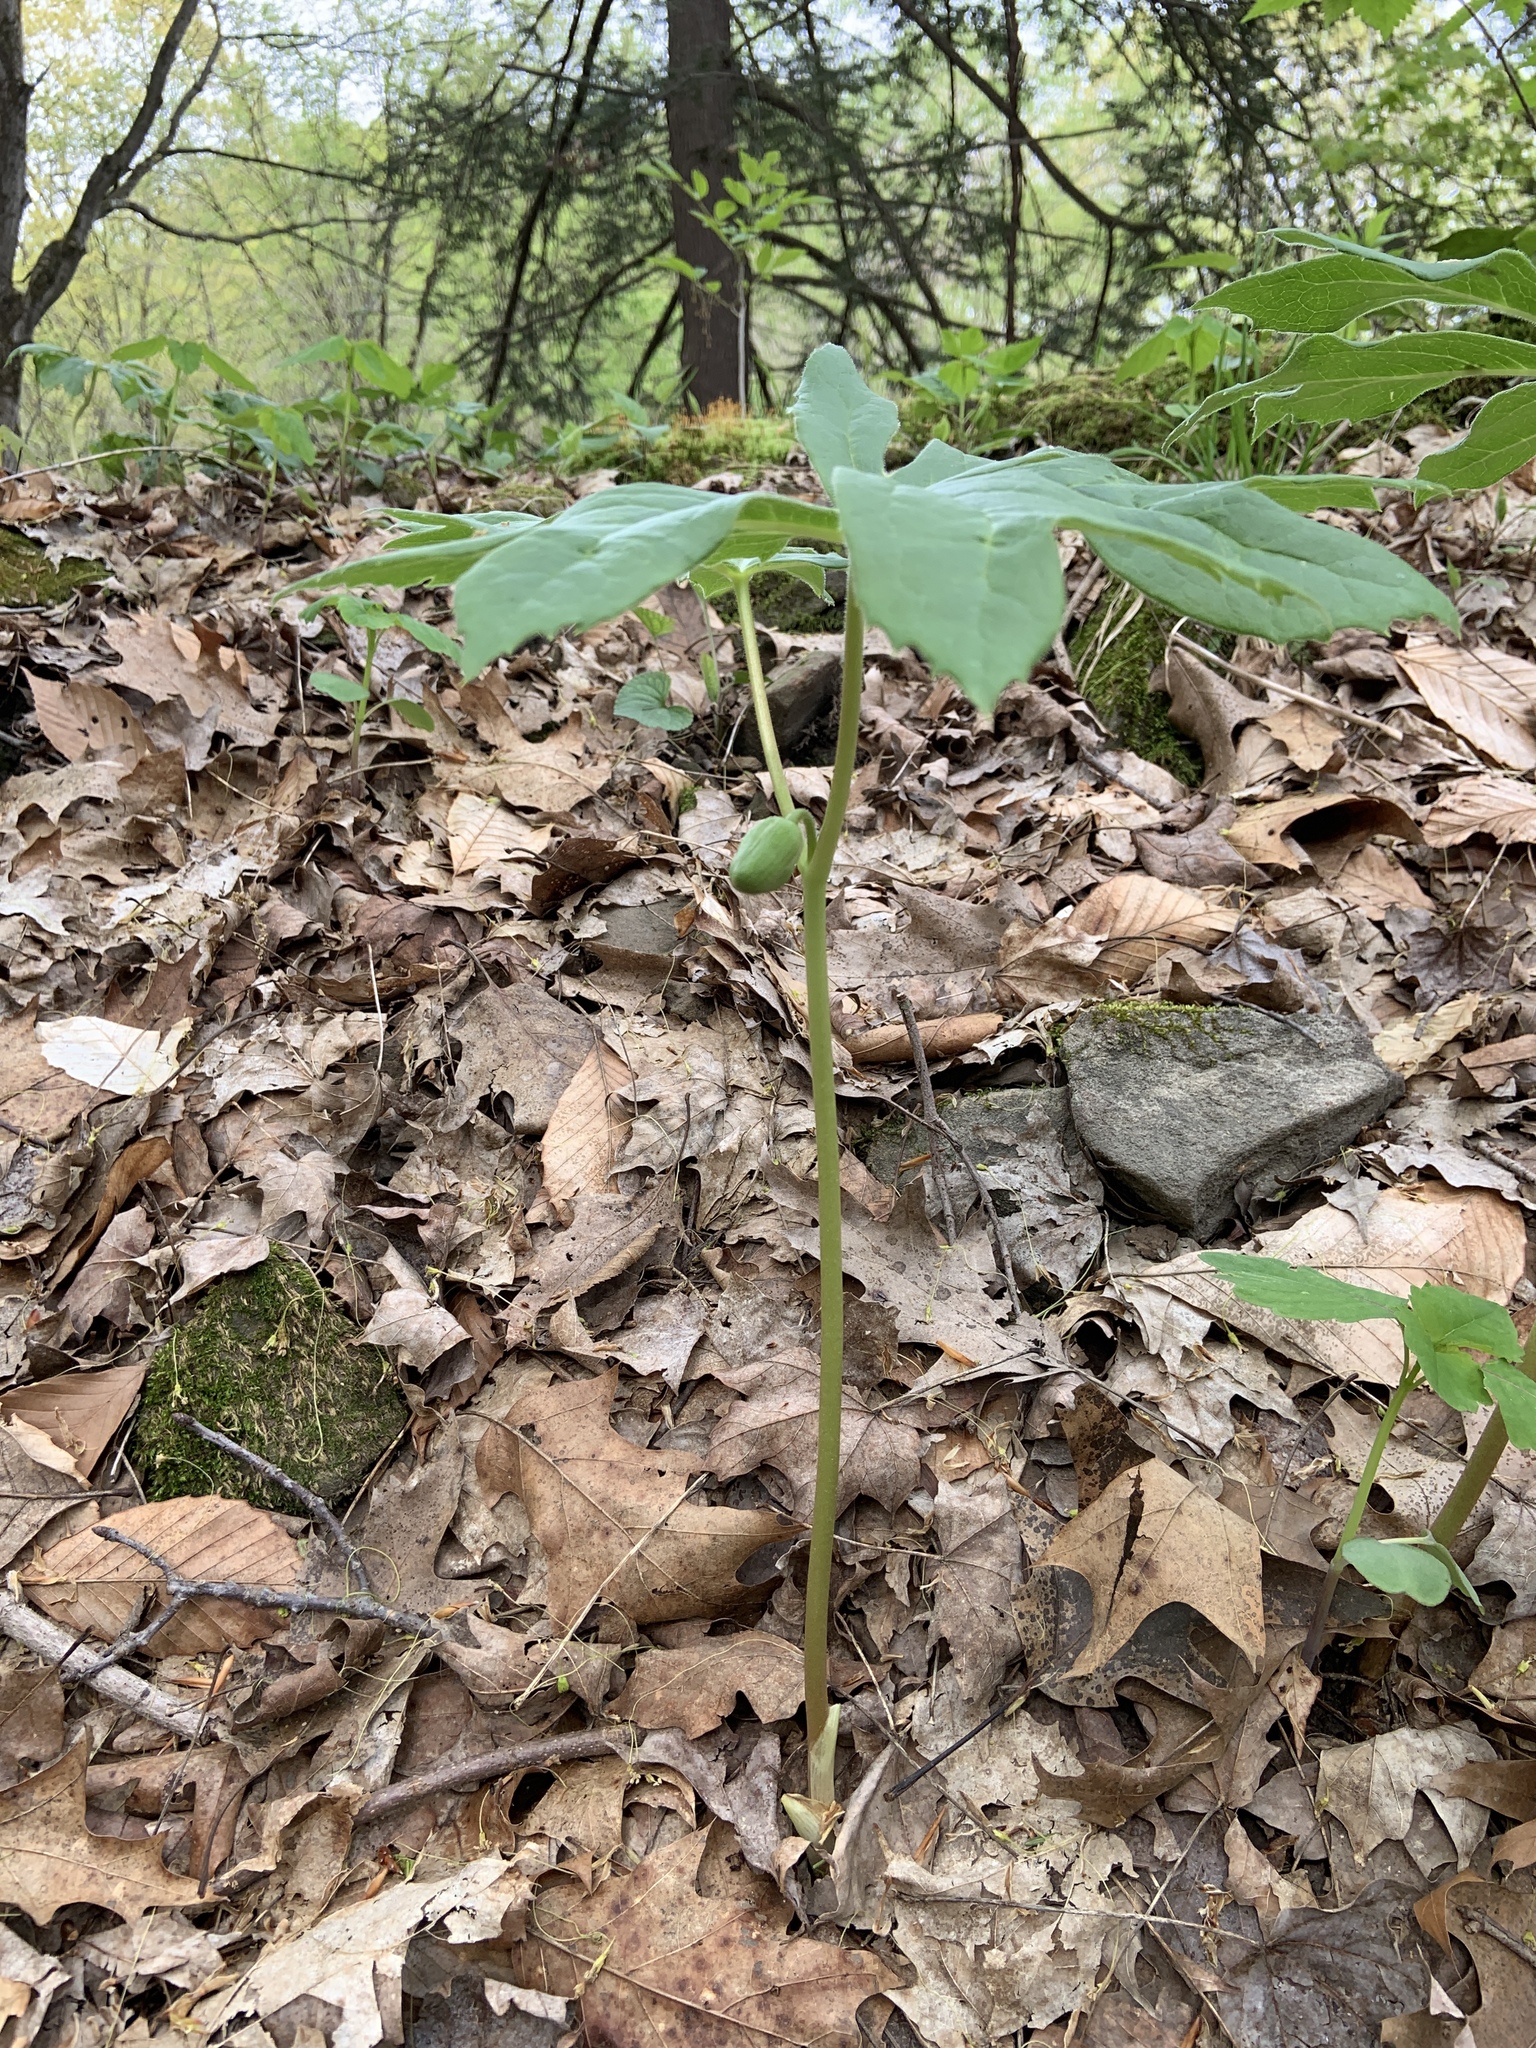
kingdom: Plantae
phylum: Tracheophyta
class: Magnoliopsida
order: Ranunculales
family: Berberidaceae
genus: Podophyllum
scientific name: Podophyllum peltatum
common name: Wild mandrake
